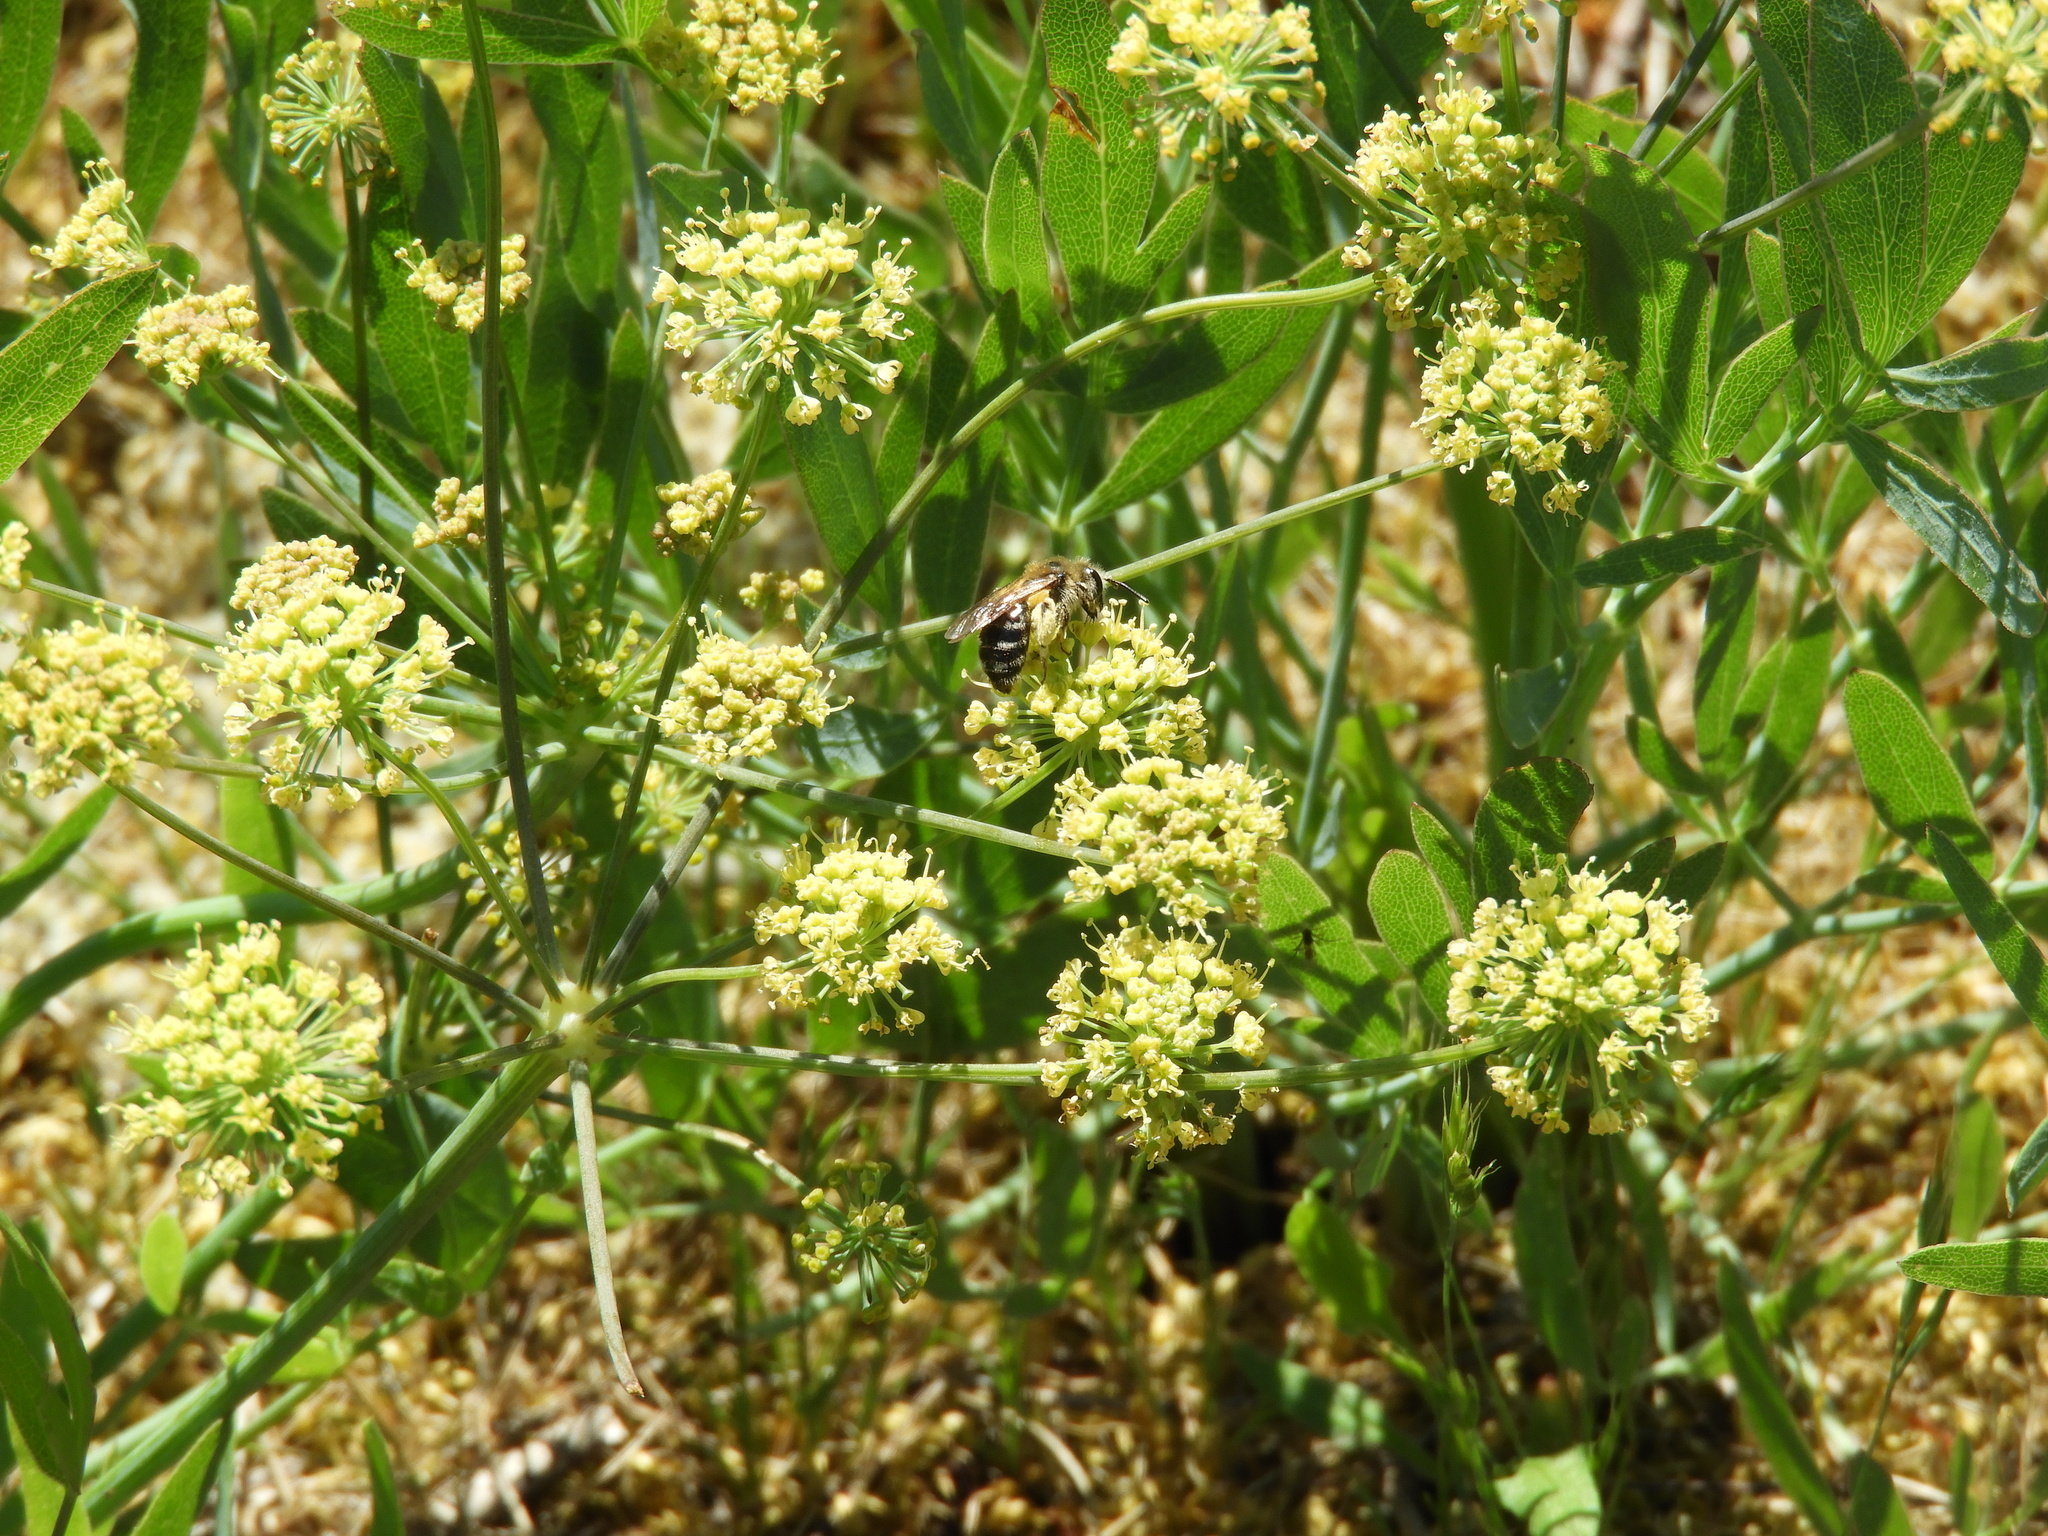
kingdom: Plantae
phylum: Tracheophyta
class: Magnoliopsida
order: Apiales
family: Apiaceae
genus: Lomatium
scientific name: Lomatium nudicaule
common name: Pestle lomatium
